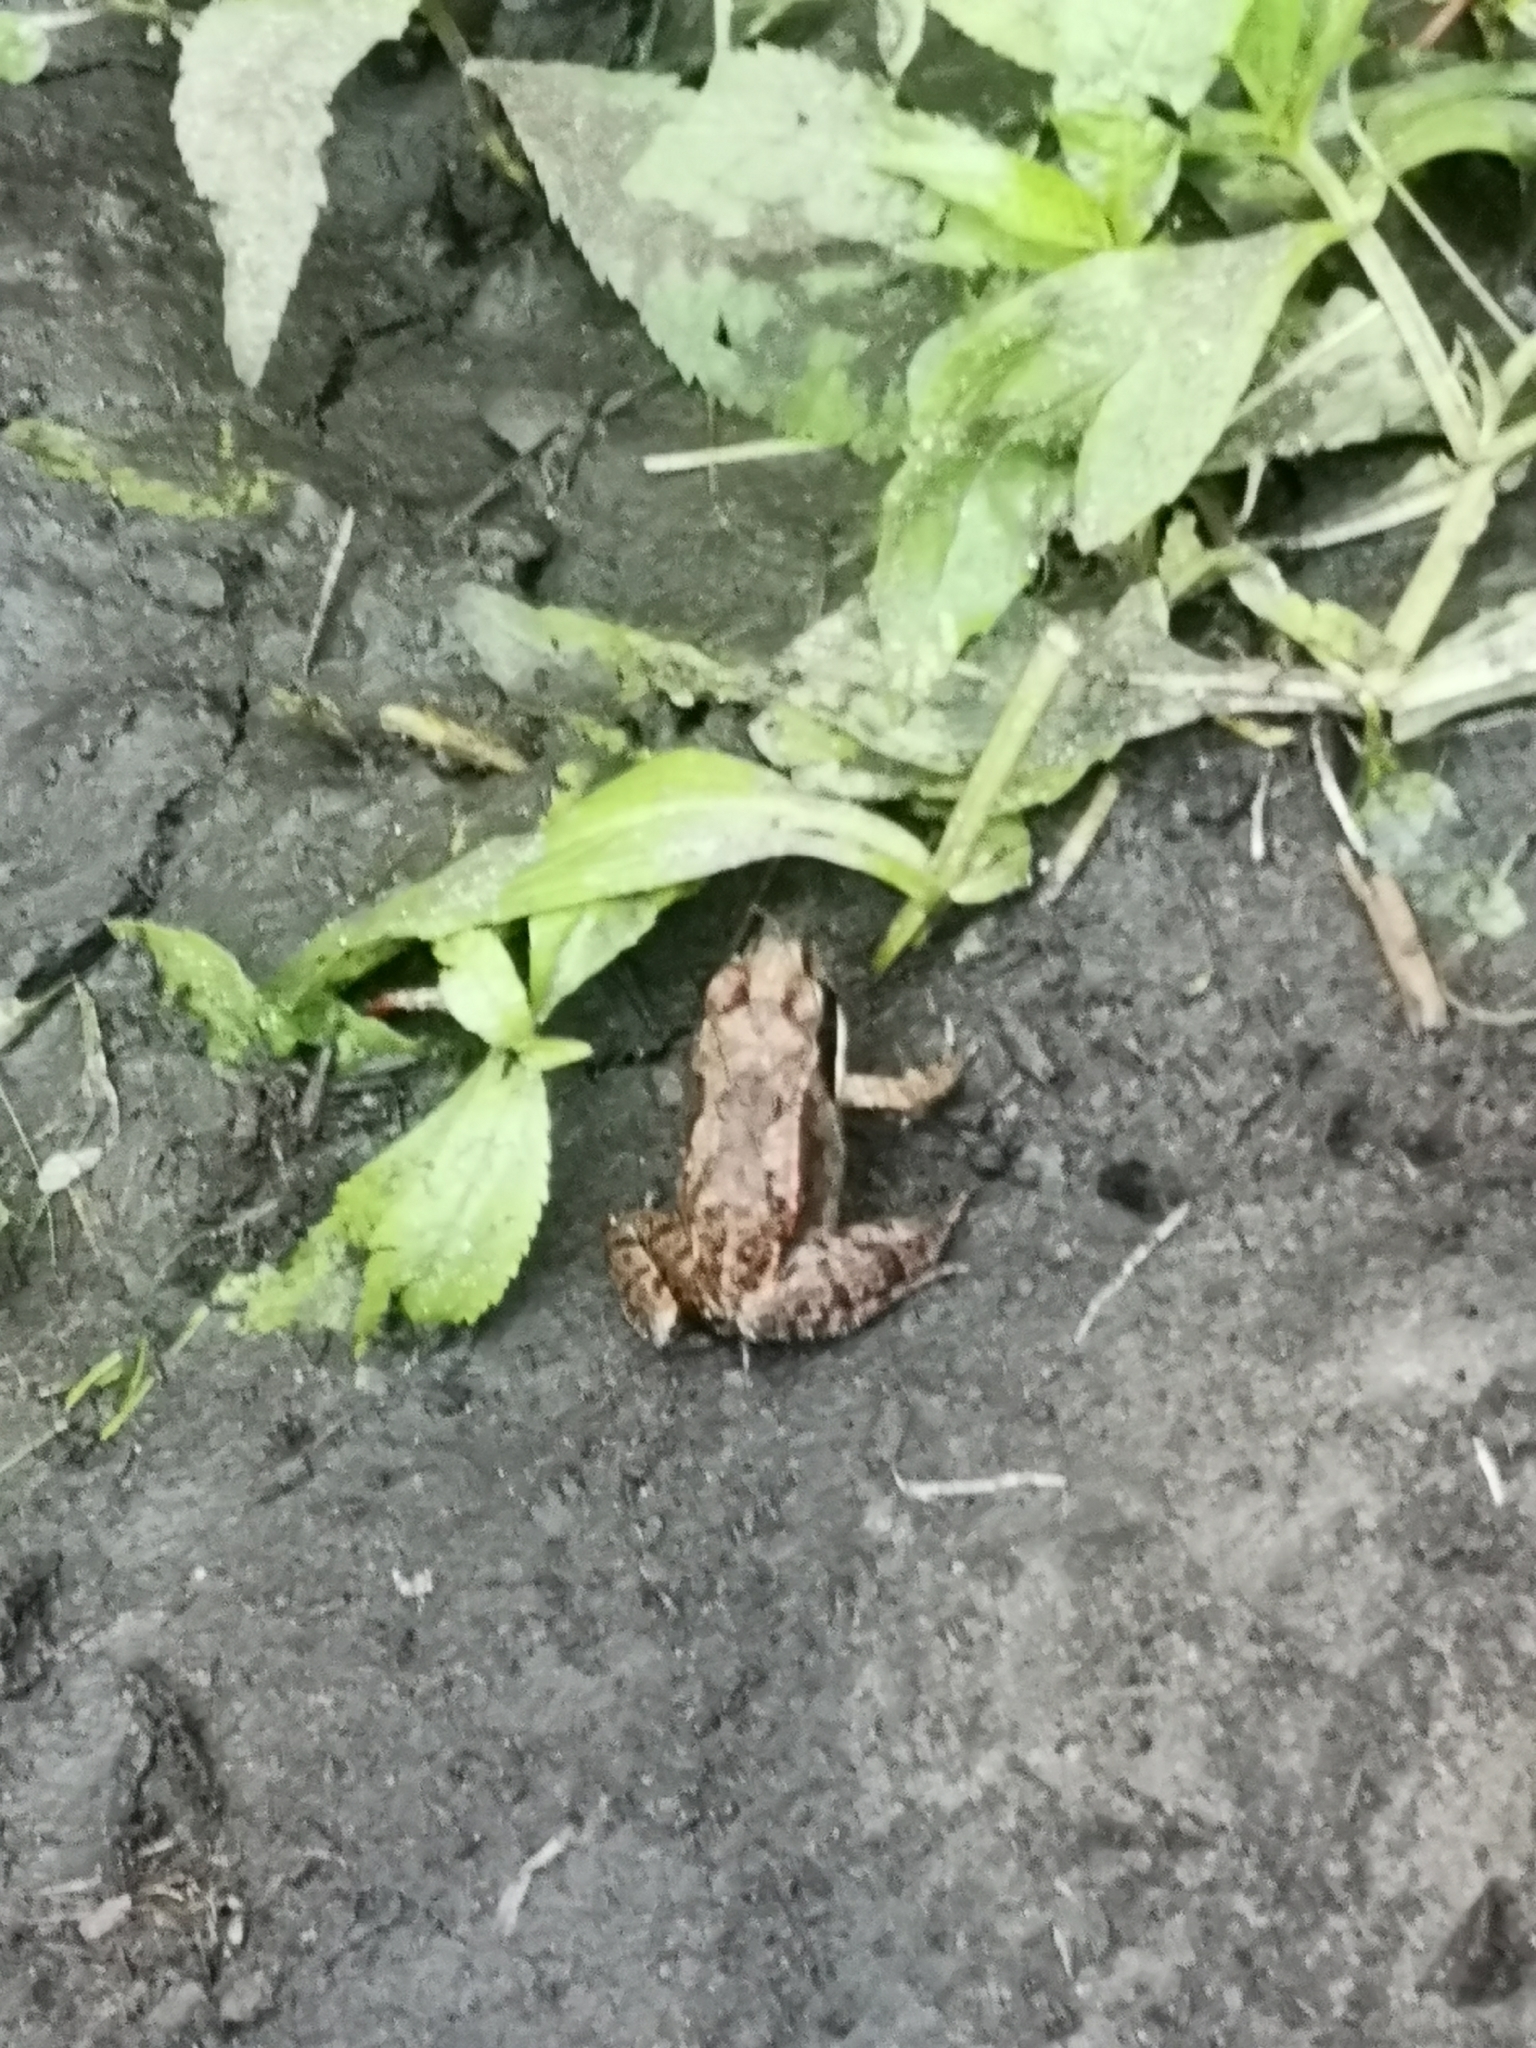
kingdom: Animalia
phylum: Chordata
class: Amphibia
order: Anura
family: Ranidae
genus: Lithobates
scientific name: Lithobates sylvaticus
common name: Wood frog
